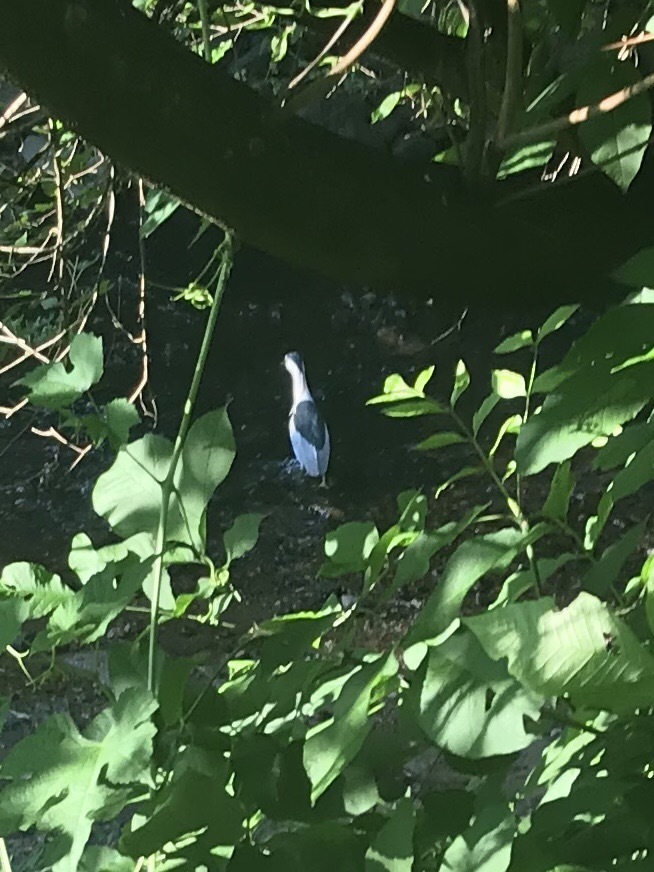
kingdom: Animalia
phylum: Chordata
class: Aves
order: Pelecaniformes
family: Ardeidae
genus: Nycticorax
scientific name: Nycticorax nycticorax
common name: Black-crowned night heron
